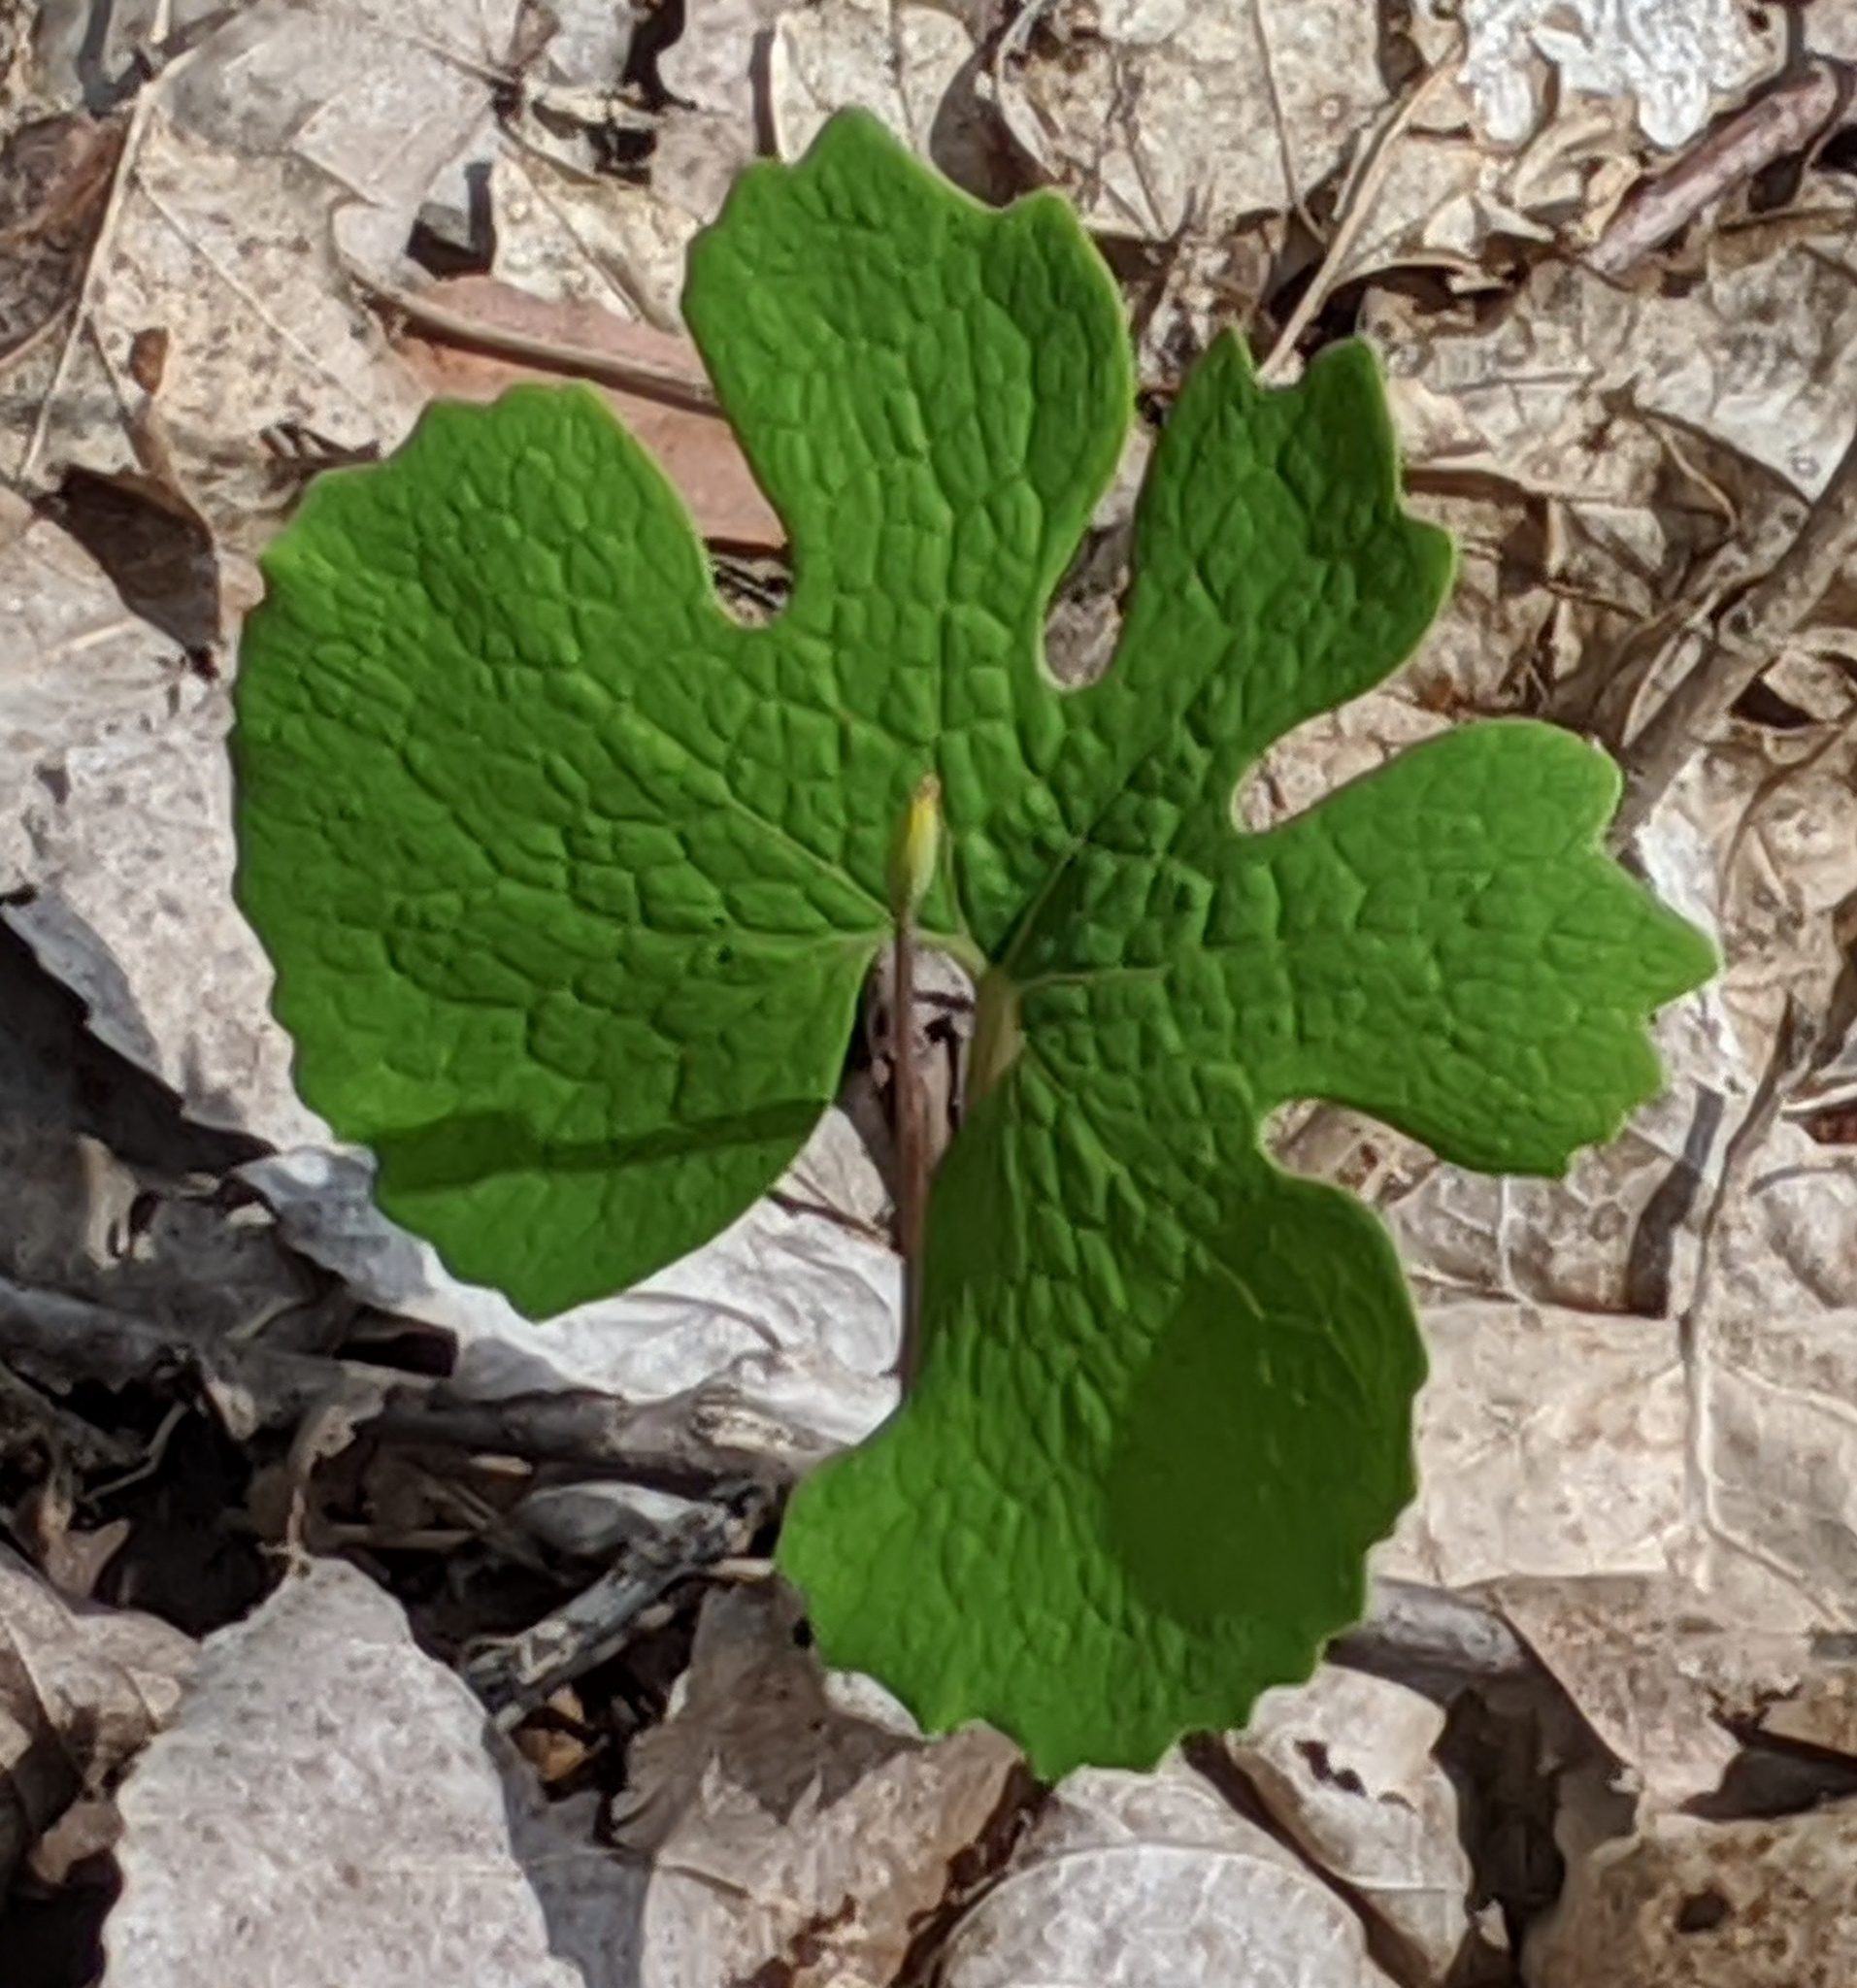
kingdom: Plantae
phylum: Tracheophyta
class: Magnoliopsida
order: Ranunculales
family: Papaveraceae
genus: Sanguinaria
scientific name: Sanguinaria canadensis
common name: Bloodroot
